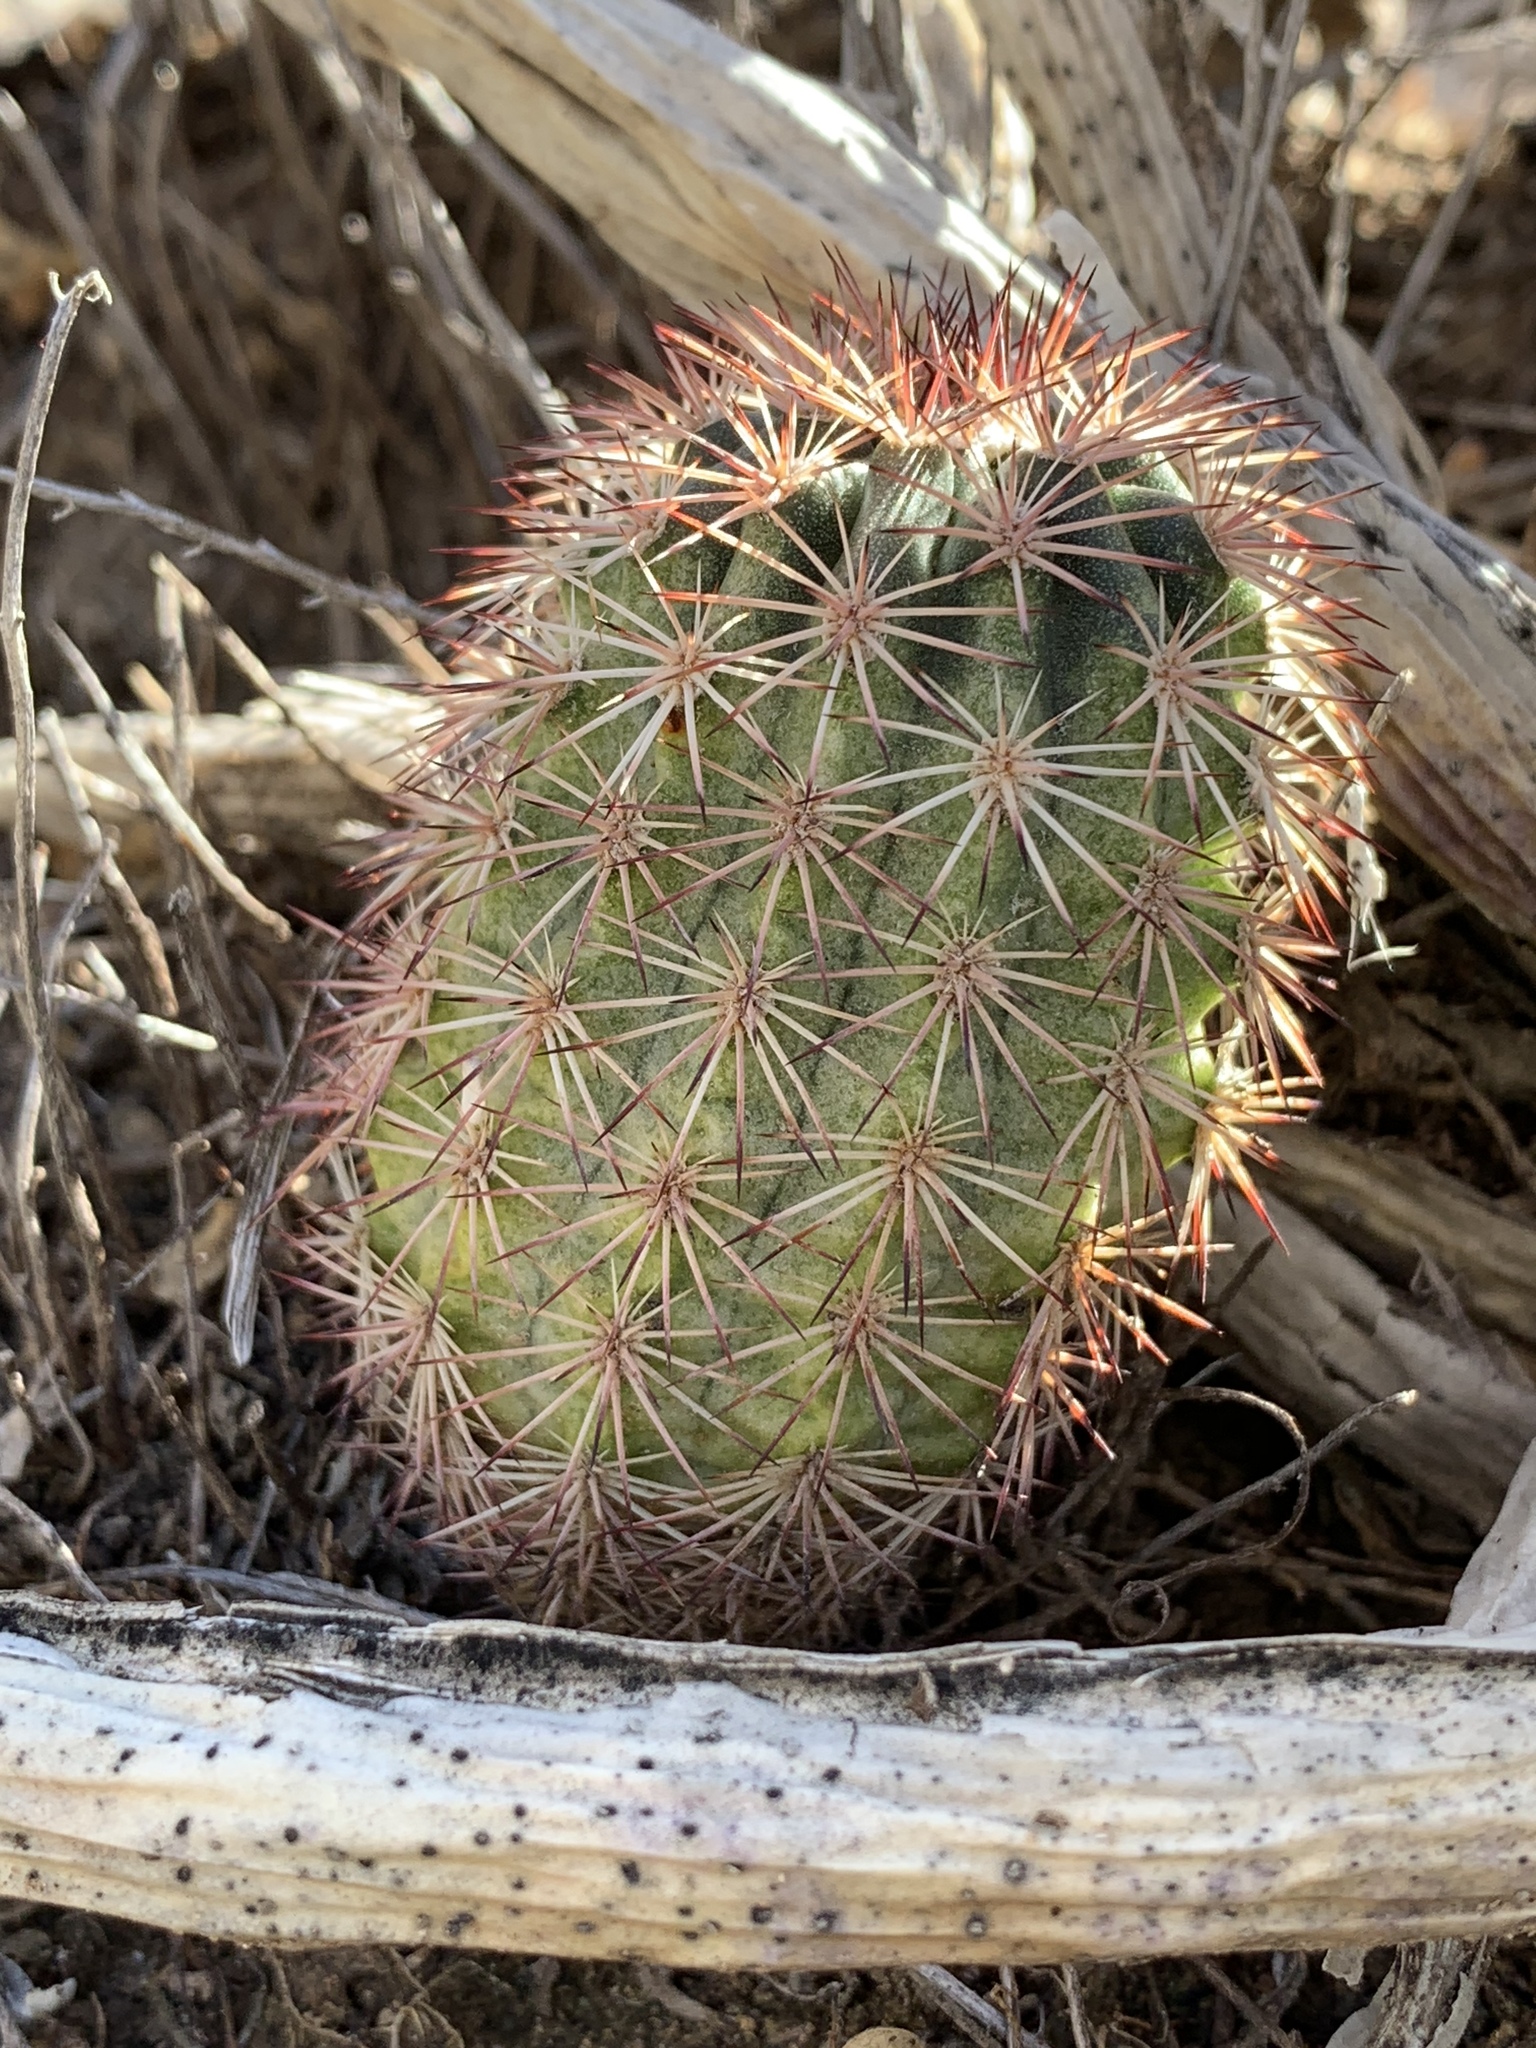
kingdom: Plantae
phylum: Tracheophyta
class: Magnoliopsida
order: Caryophyllales
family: Cactaceae
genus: Echinocereus
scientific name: Echinocereus roetteri
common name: Lloyd's hedgehog cactus
